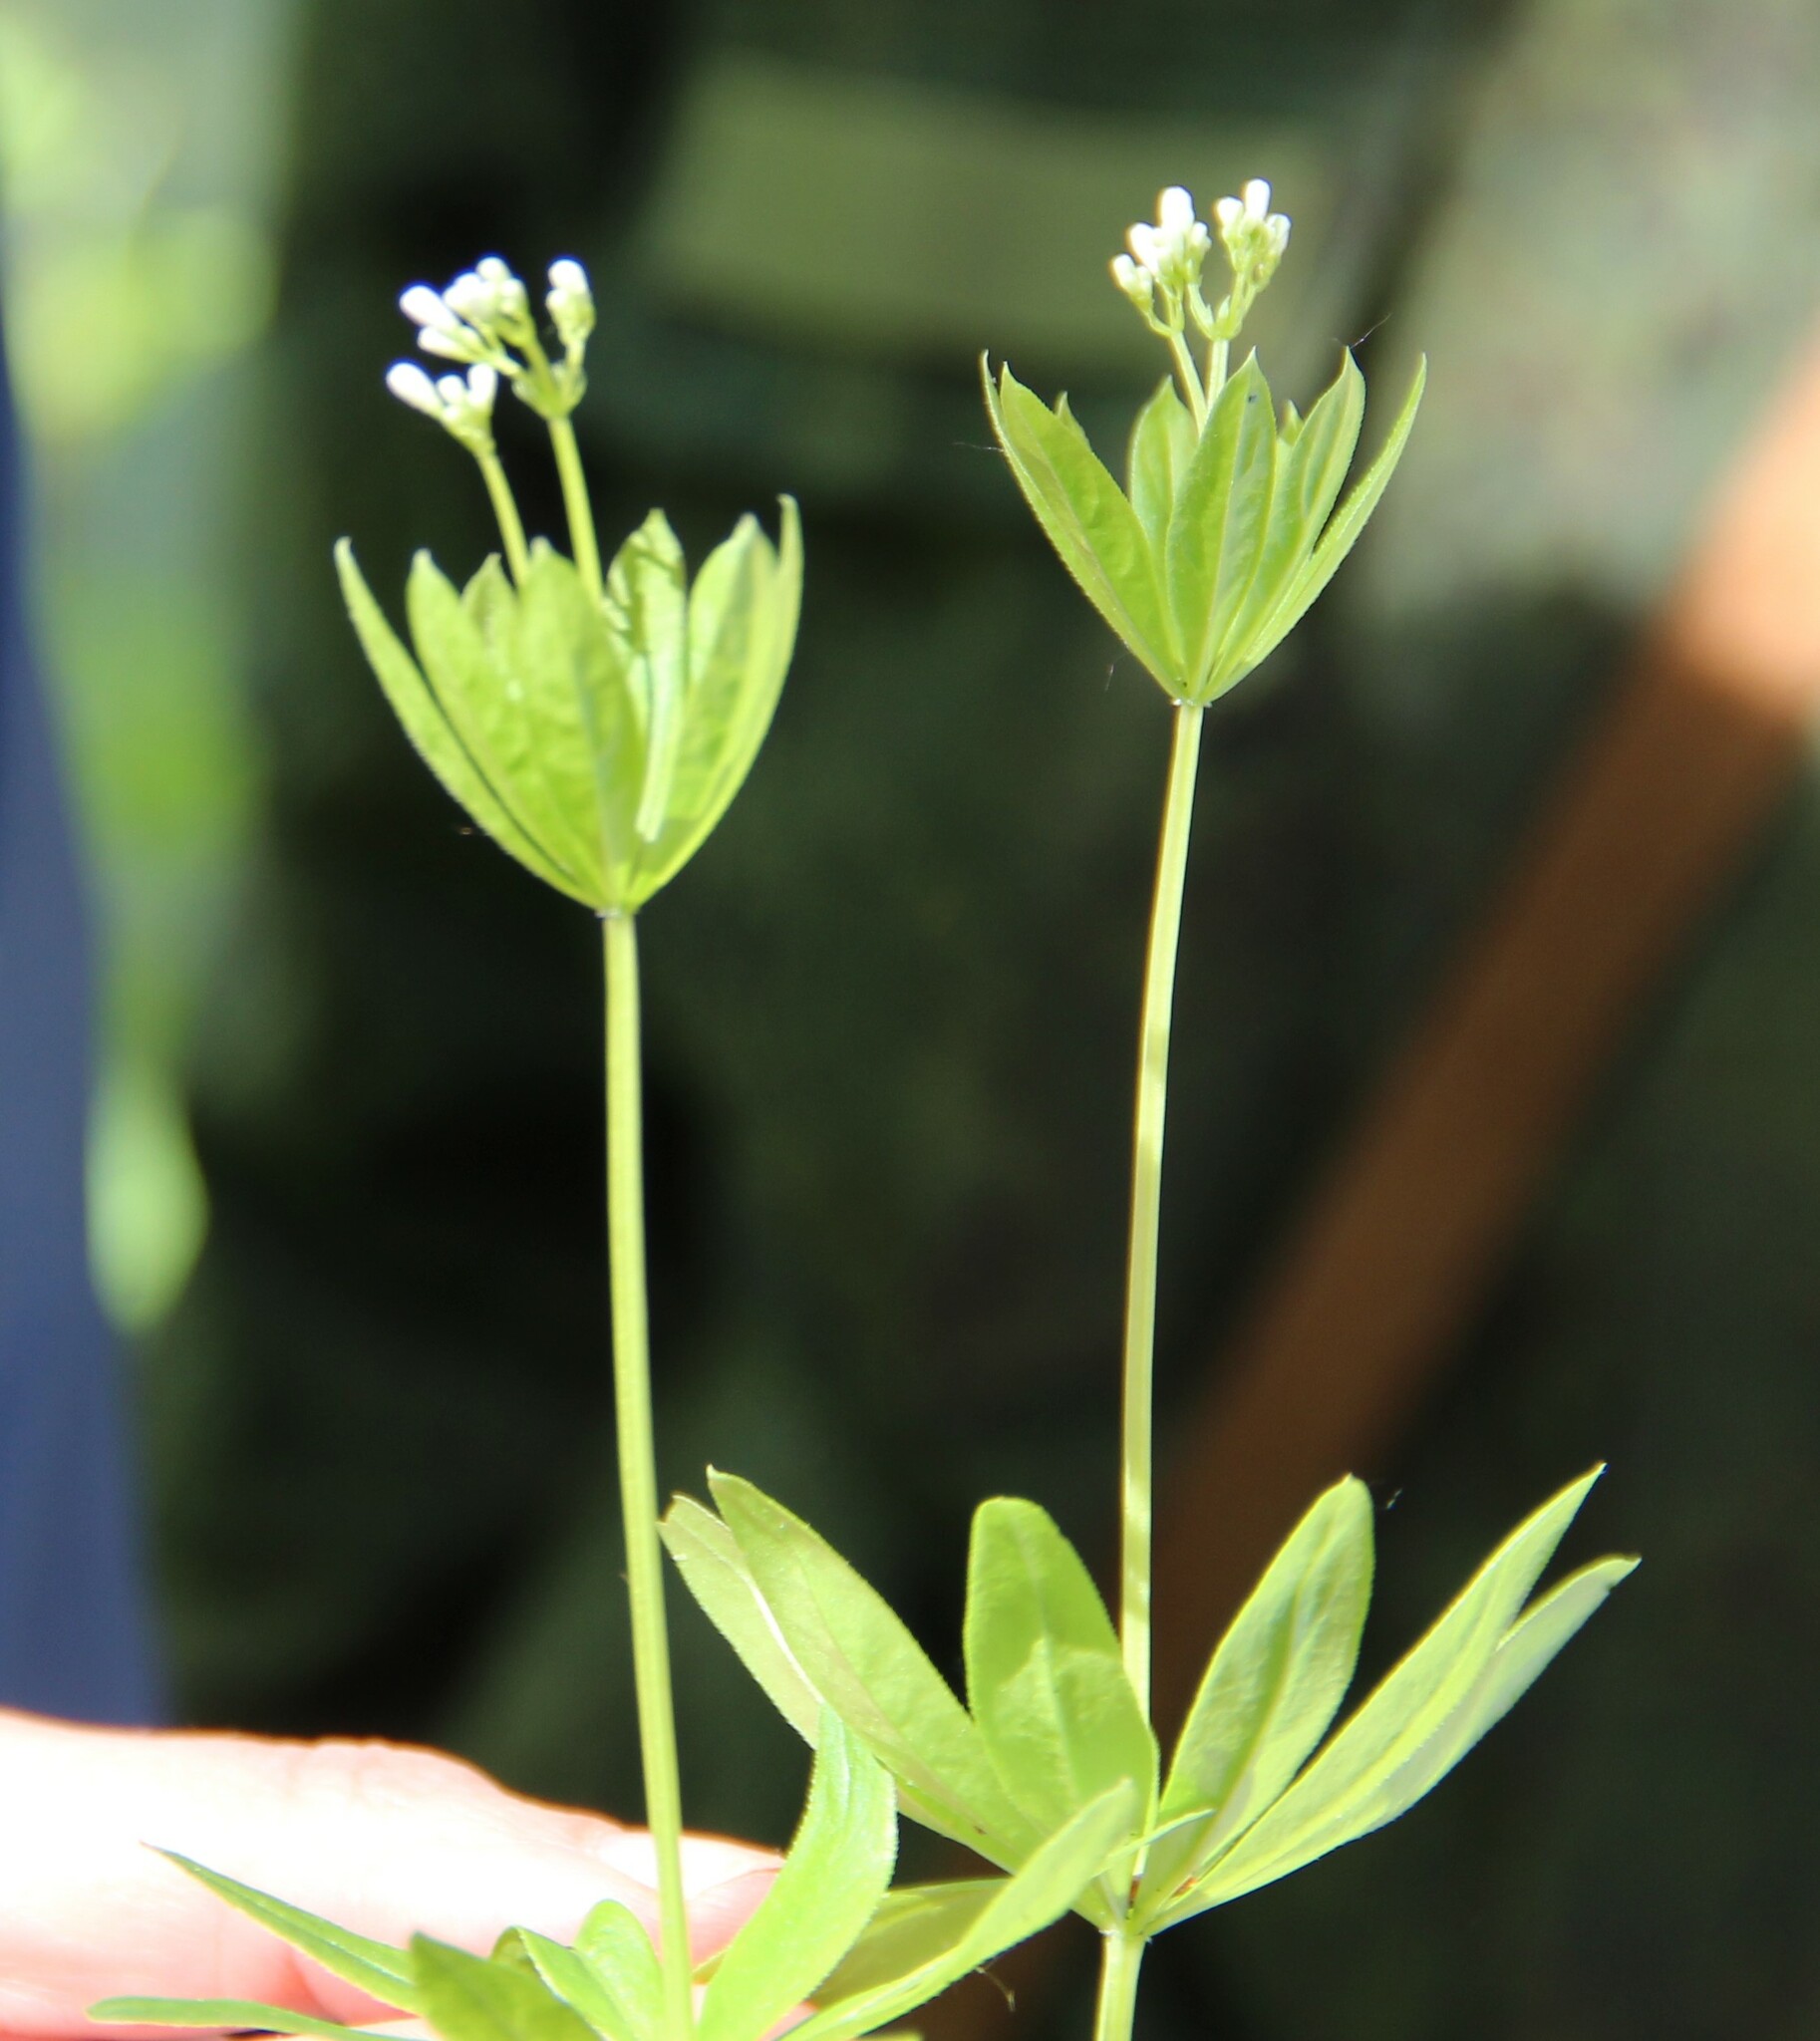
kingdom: Plantae
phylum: Tracheophyta
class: Magnoliopsida
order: Gentianales
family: Rubiaceae
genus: Galium
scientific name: Galium odoratum
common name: Sweet woodruff
